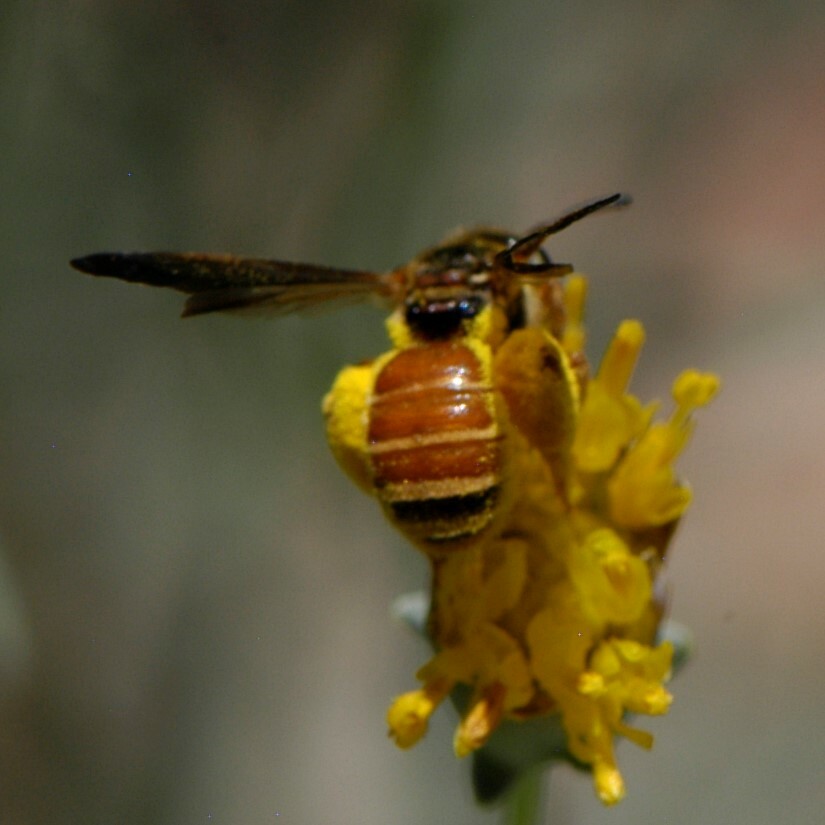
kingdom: Animalia
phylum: Arthropoda
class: Insecta
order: Hymenoptera
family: Halictidae
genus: Dieunomia
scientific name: Dieunomia nevadensis
